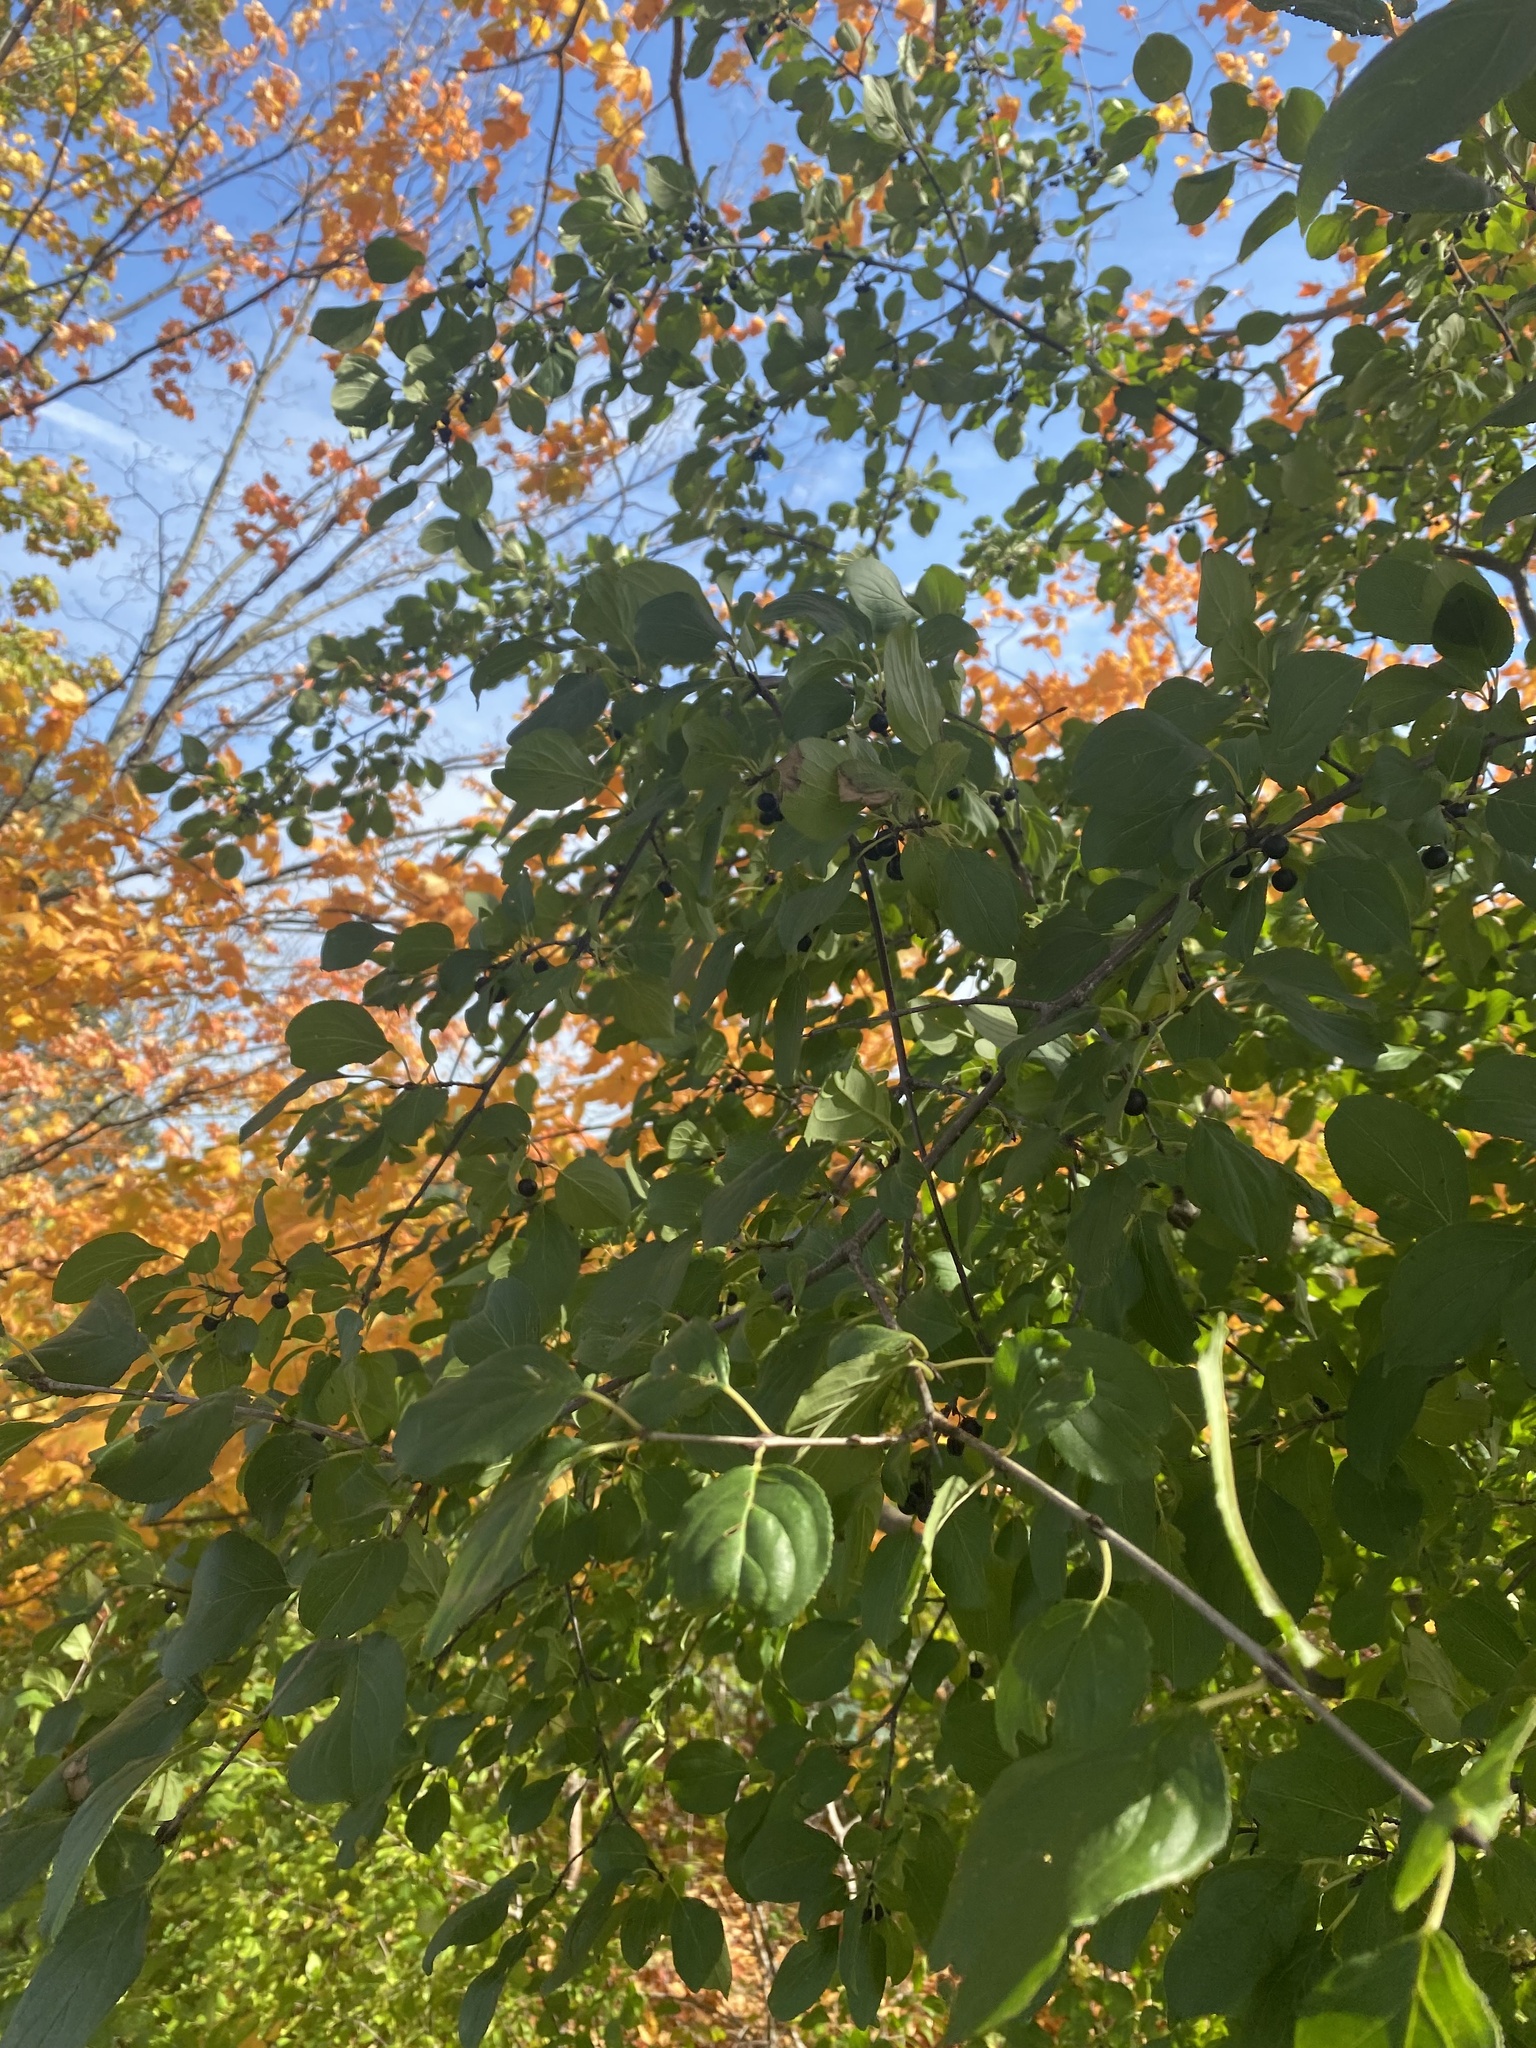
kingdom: Plantae
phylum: Tracheophyta
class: Magnoliopsida
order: Rosales
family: Rhamnaceae
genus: Rhamnus
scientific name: Rhamnus cathartica
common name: Common buckthorn
